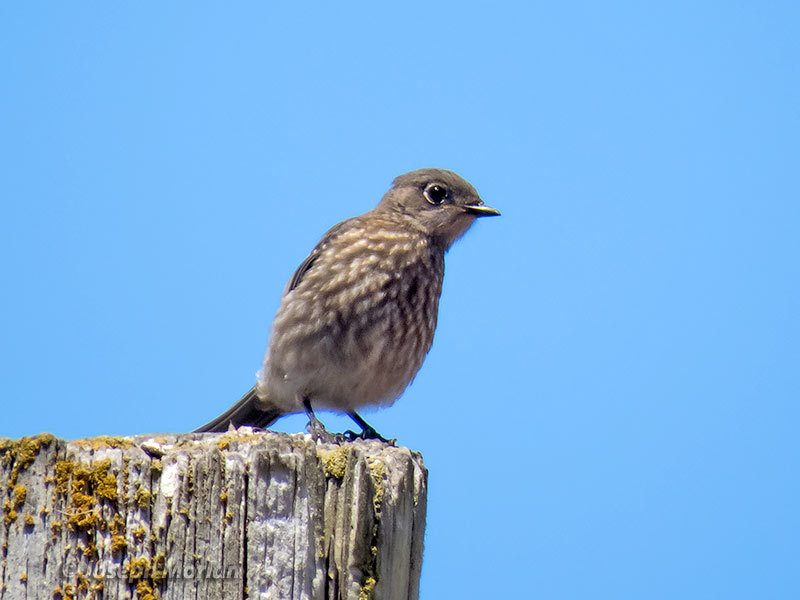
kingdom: Animalia
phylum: Chordata
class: Aves
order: Passeriformes
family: Turdidae
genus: Sialia
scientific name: Sialia mexicana
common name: Western bluebird
